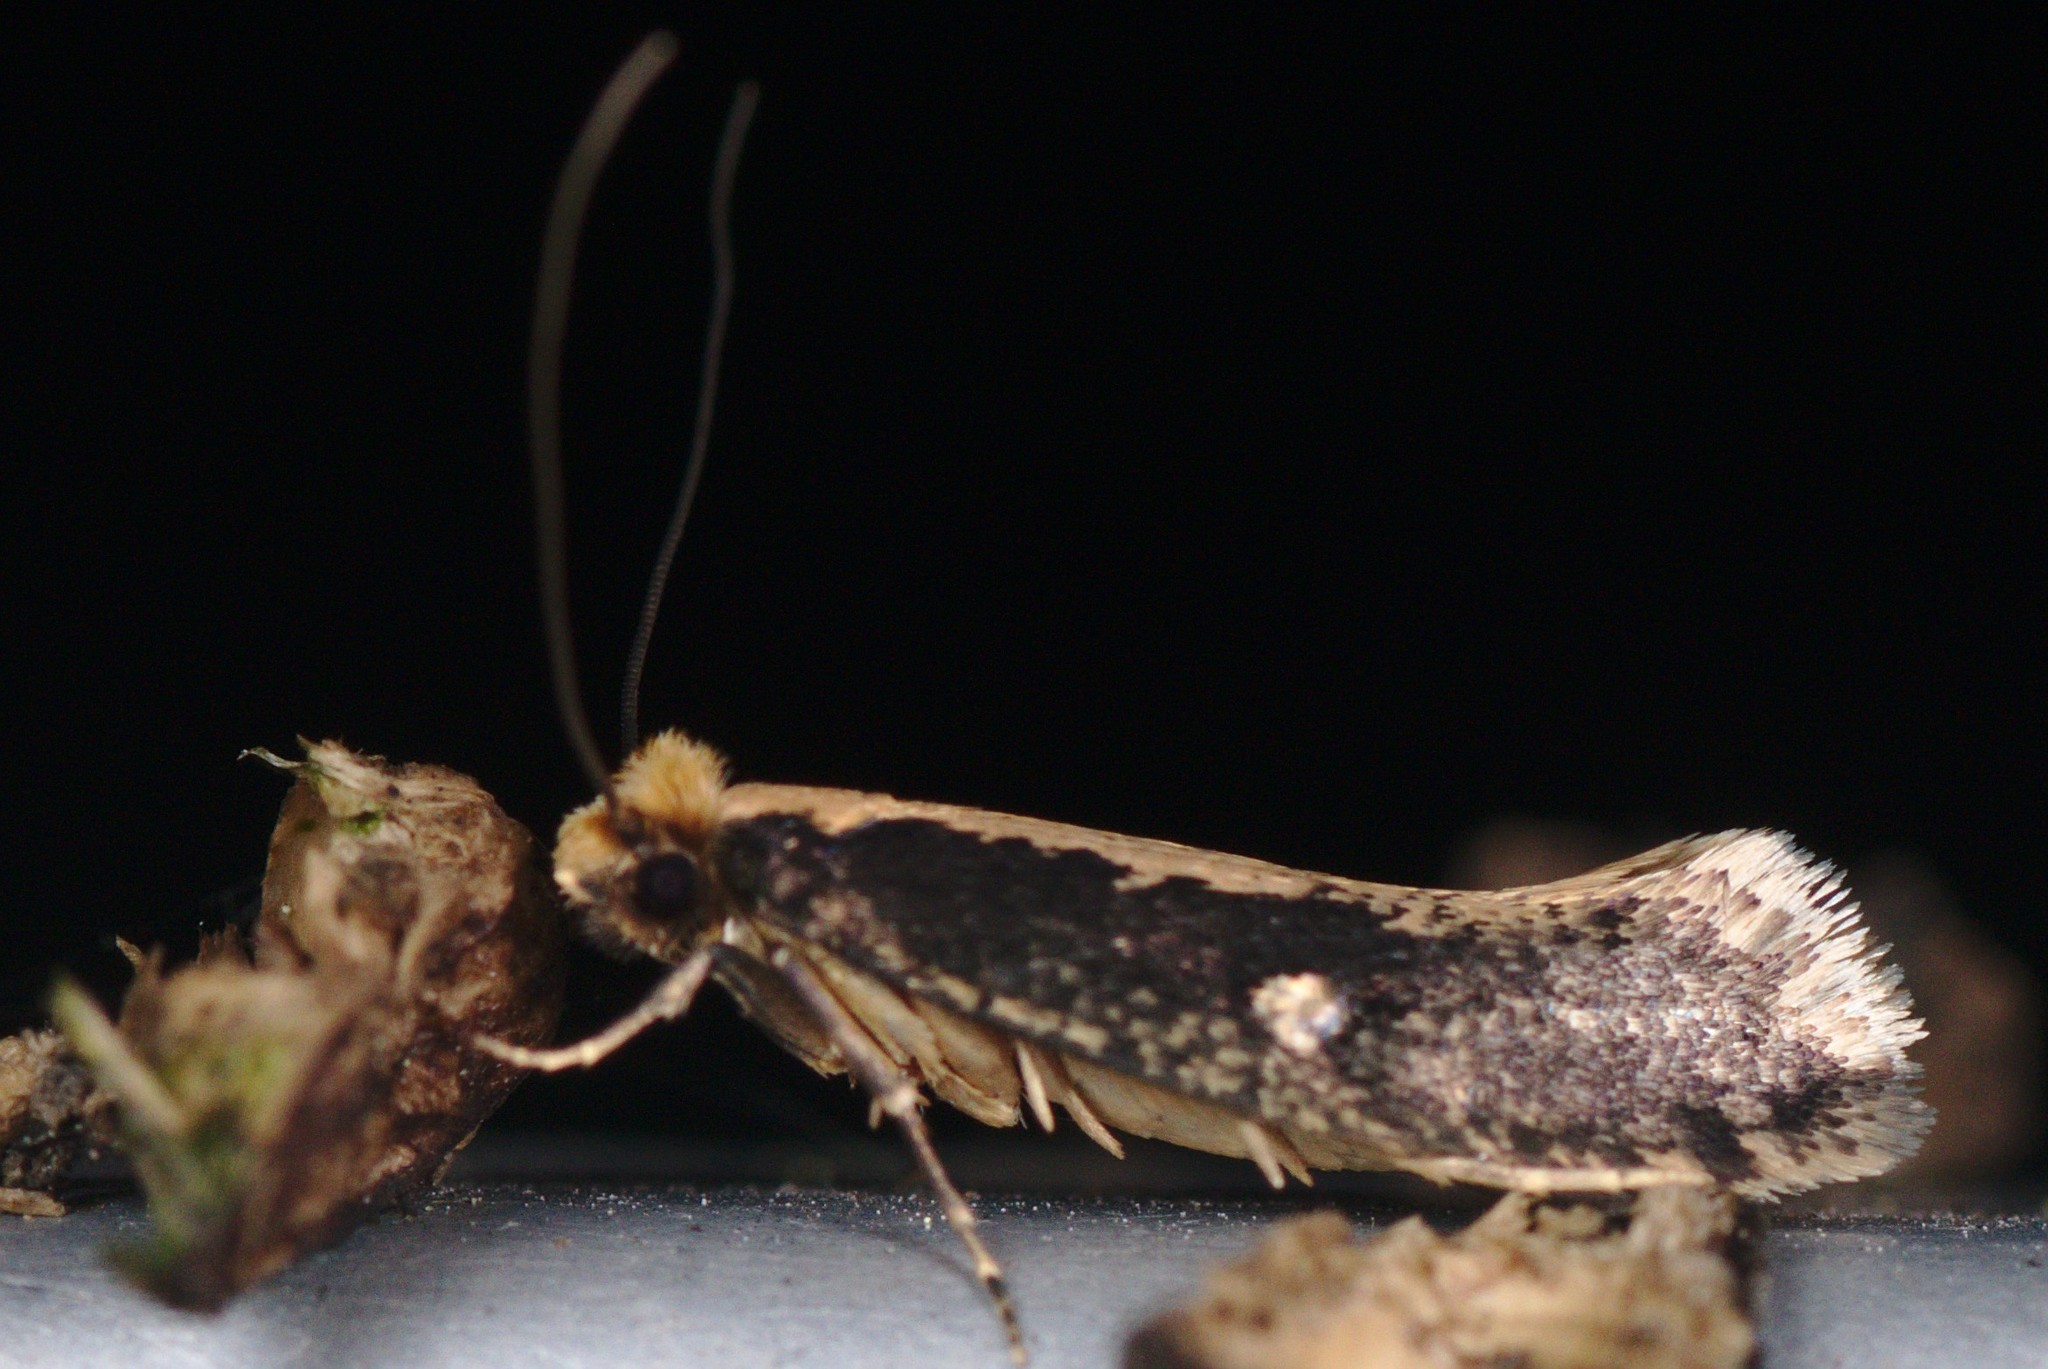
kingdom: Animalia
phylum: Arthropoda
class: Insecta
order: Lepidoptera
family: Tineidae
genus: Monopis
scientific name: Monopis ethelella
